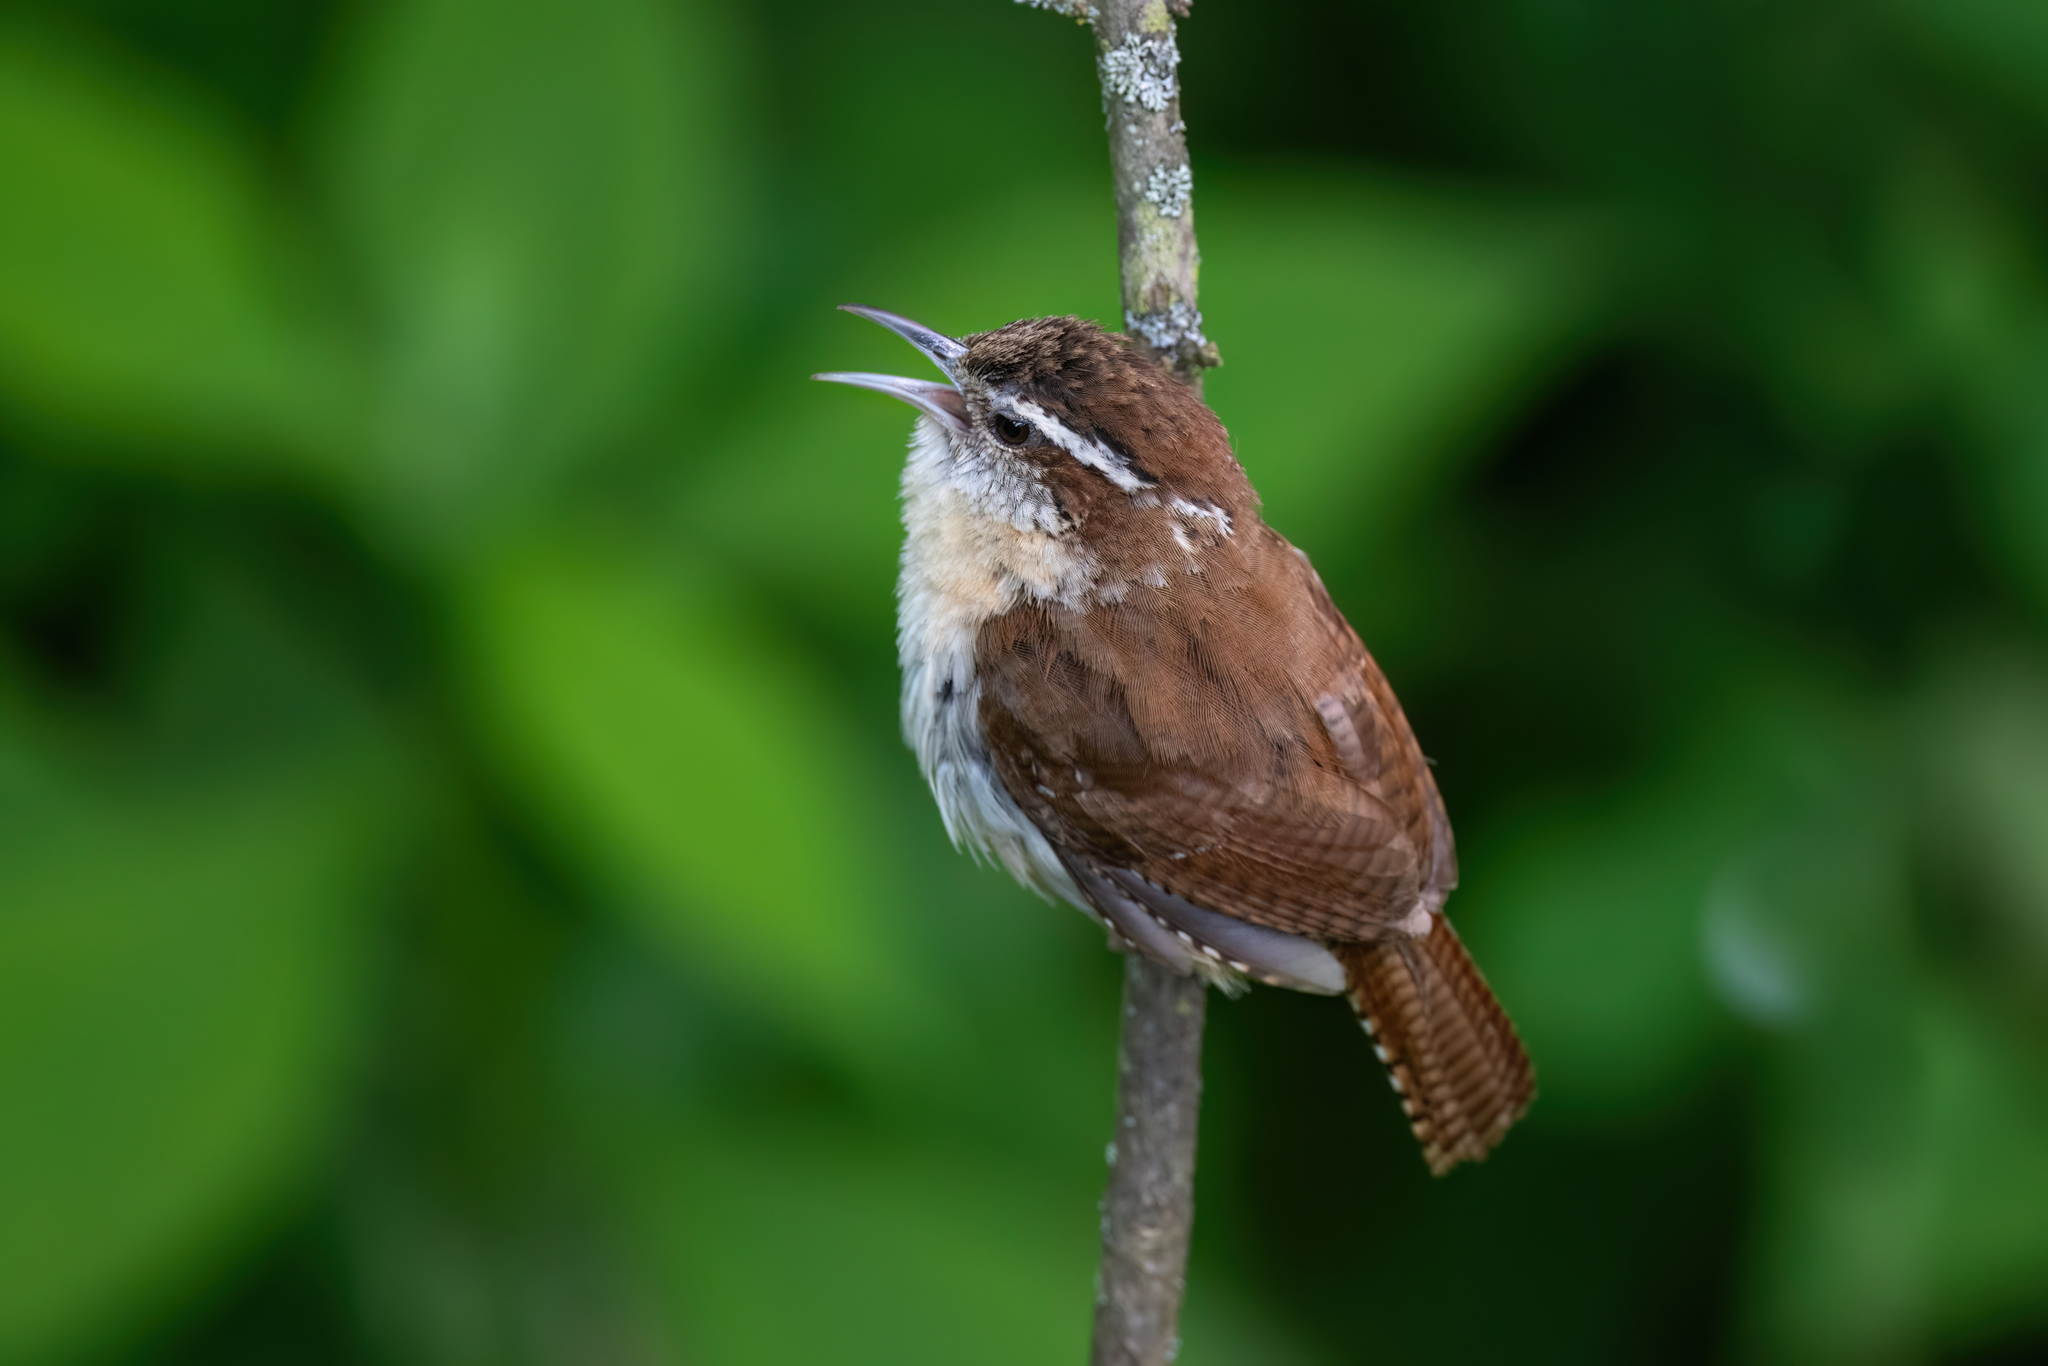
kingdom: Animalia
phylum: Chordata
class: Aves
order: Passeriformes
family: Troglodytidae
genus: Thryothorus
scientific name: Thryothorus ludovicianus
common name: Carolina wren
